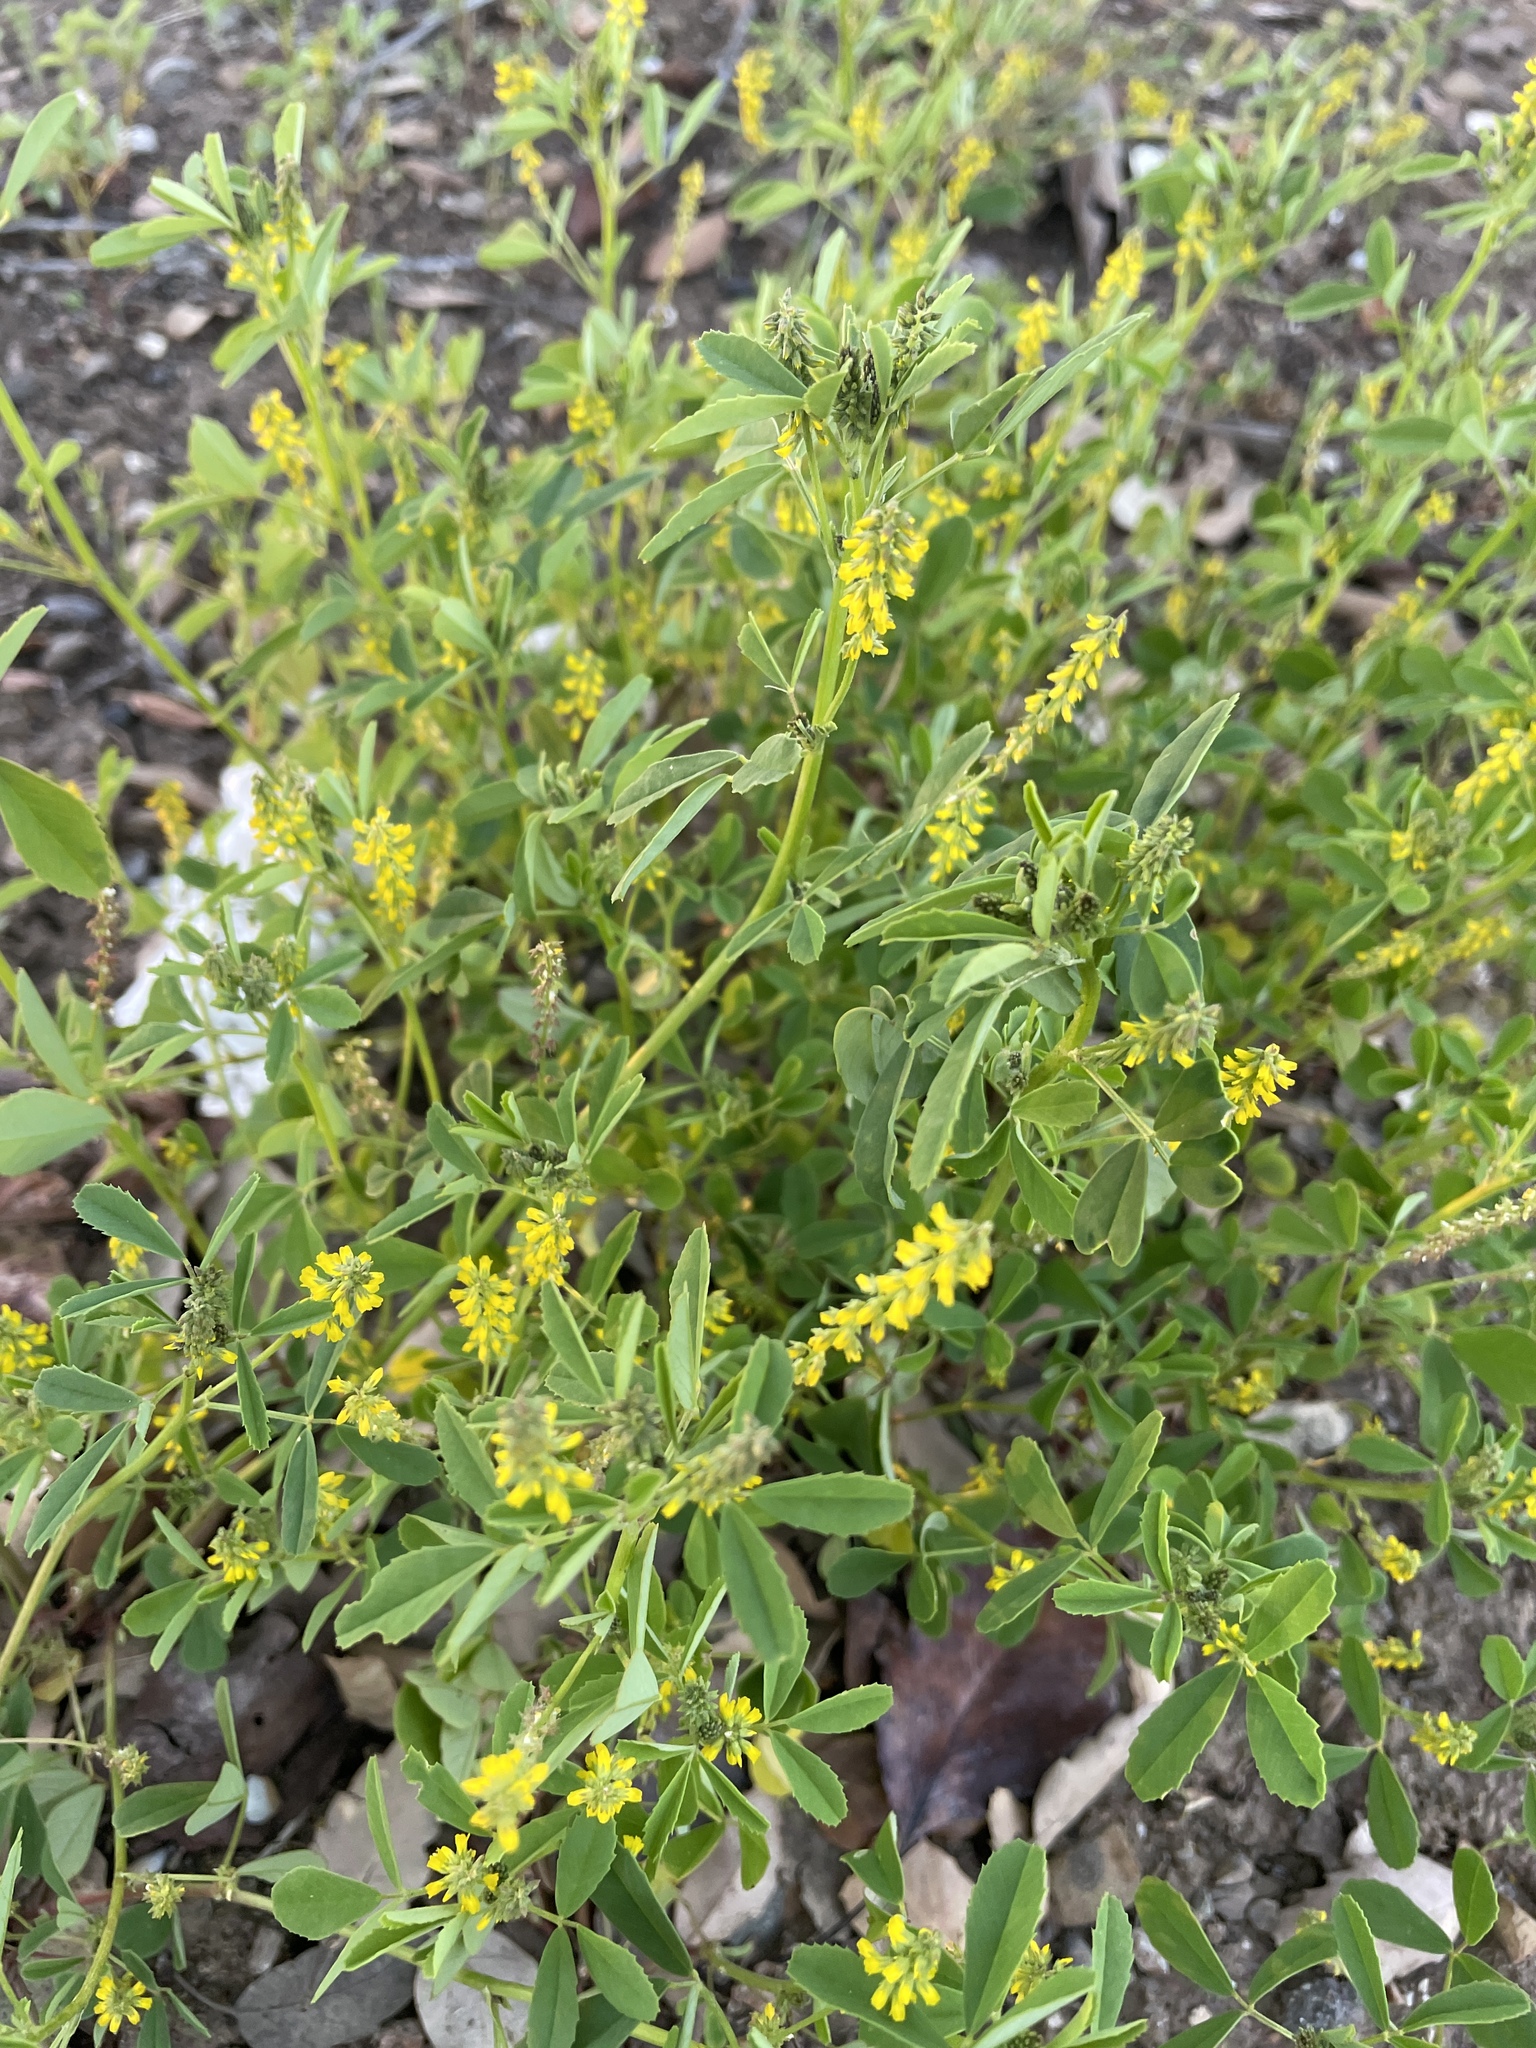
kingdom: Plantae
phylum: Tracheophyta
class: Magnoliopsida
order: Fabales
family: Fabaceae
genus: Melilotus
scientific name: Melilotus indicus
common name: Small melilot
